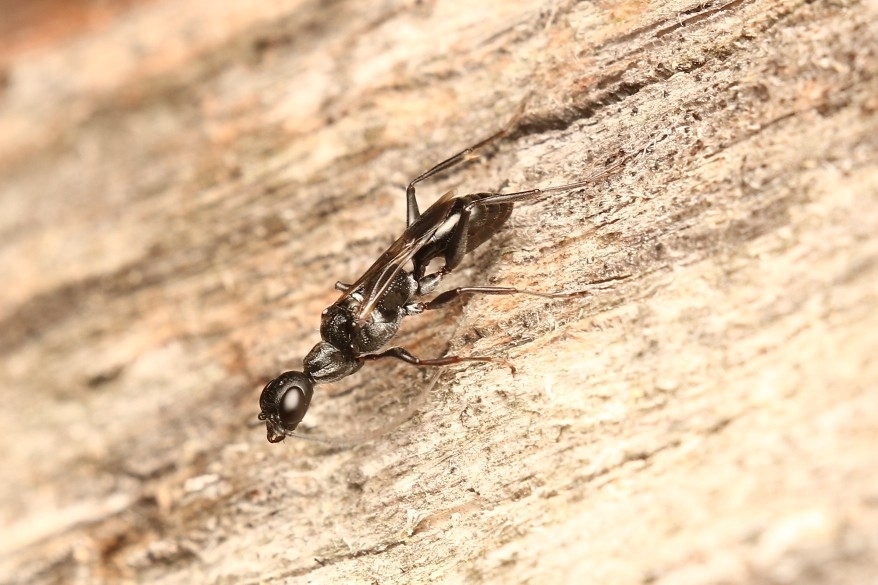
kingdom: Animalia
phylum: Arthropoda
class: Insecta
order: Hymenoptera
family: Ampulicidae
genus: Ampulex
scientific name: Ampulex canaliculata
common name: Cockroach wasp
